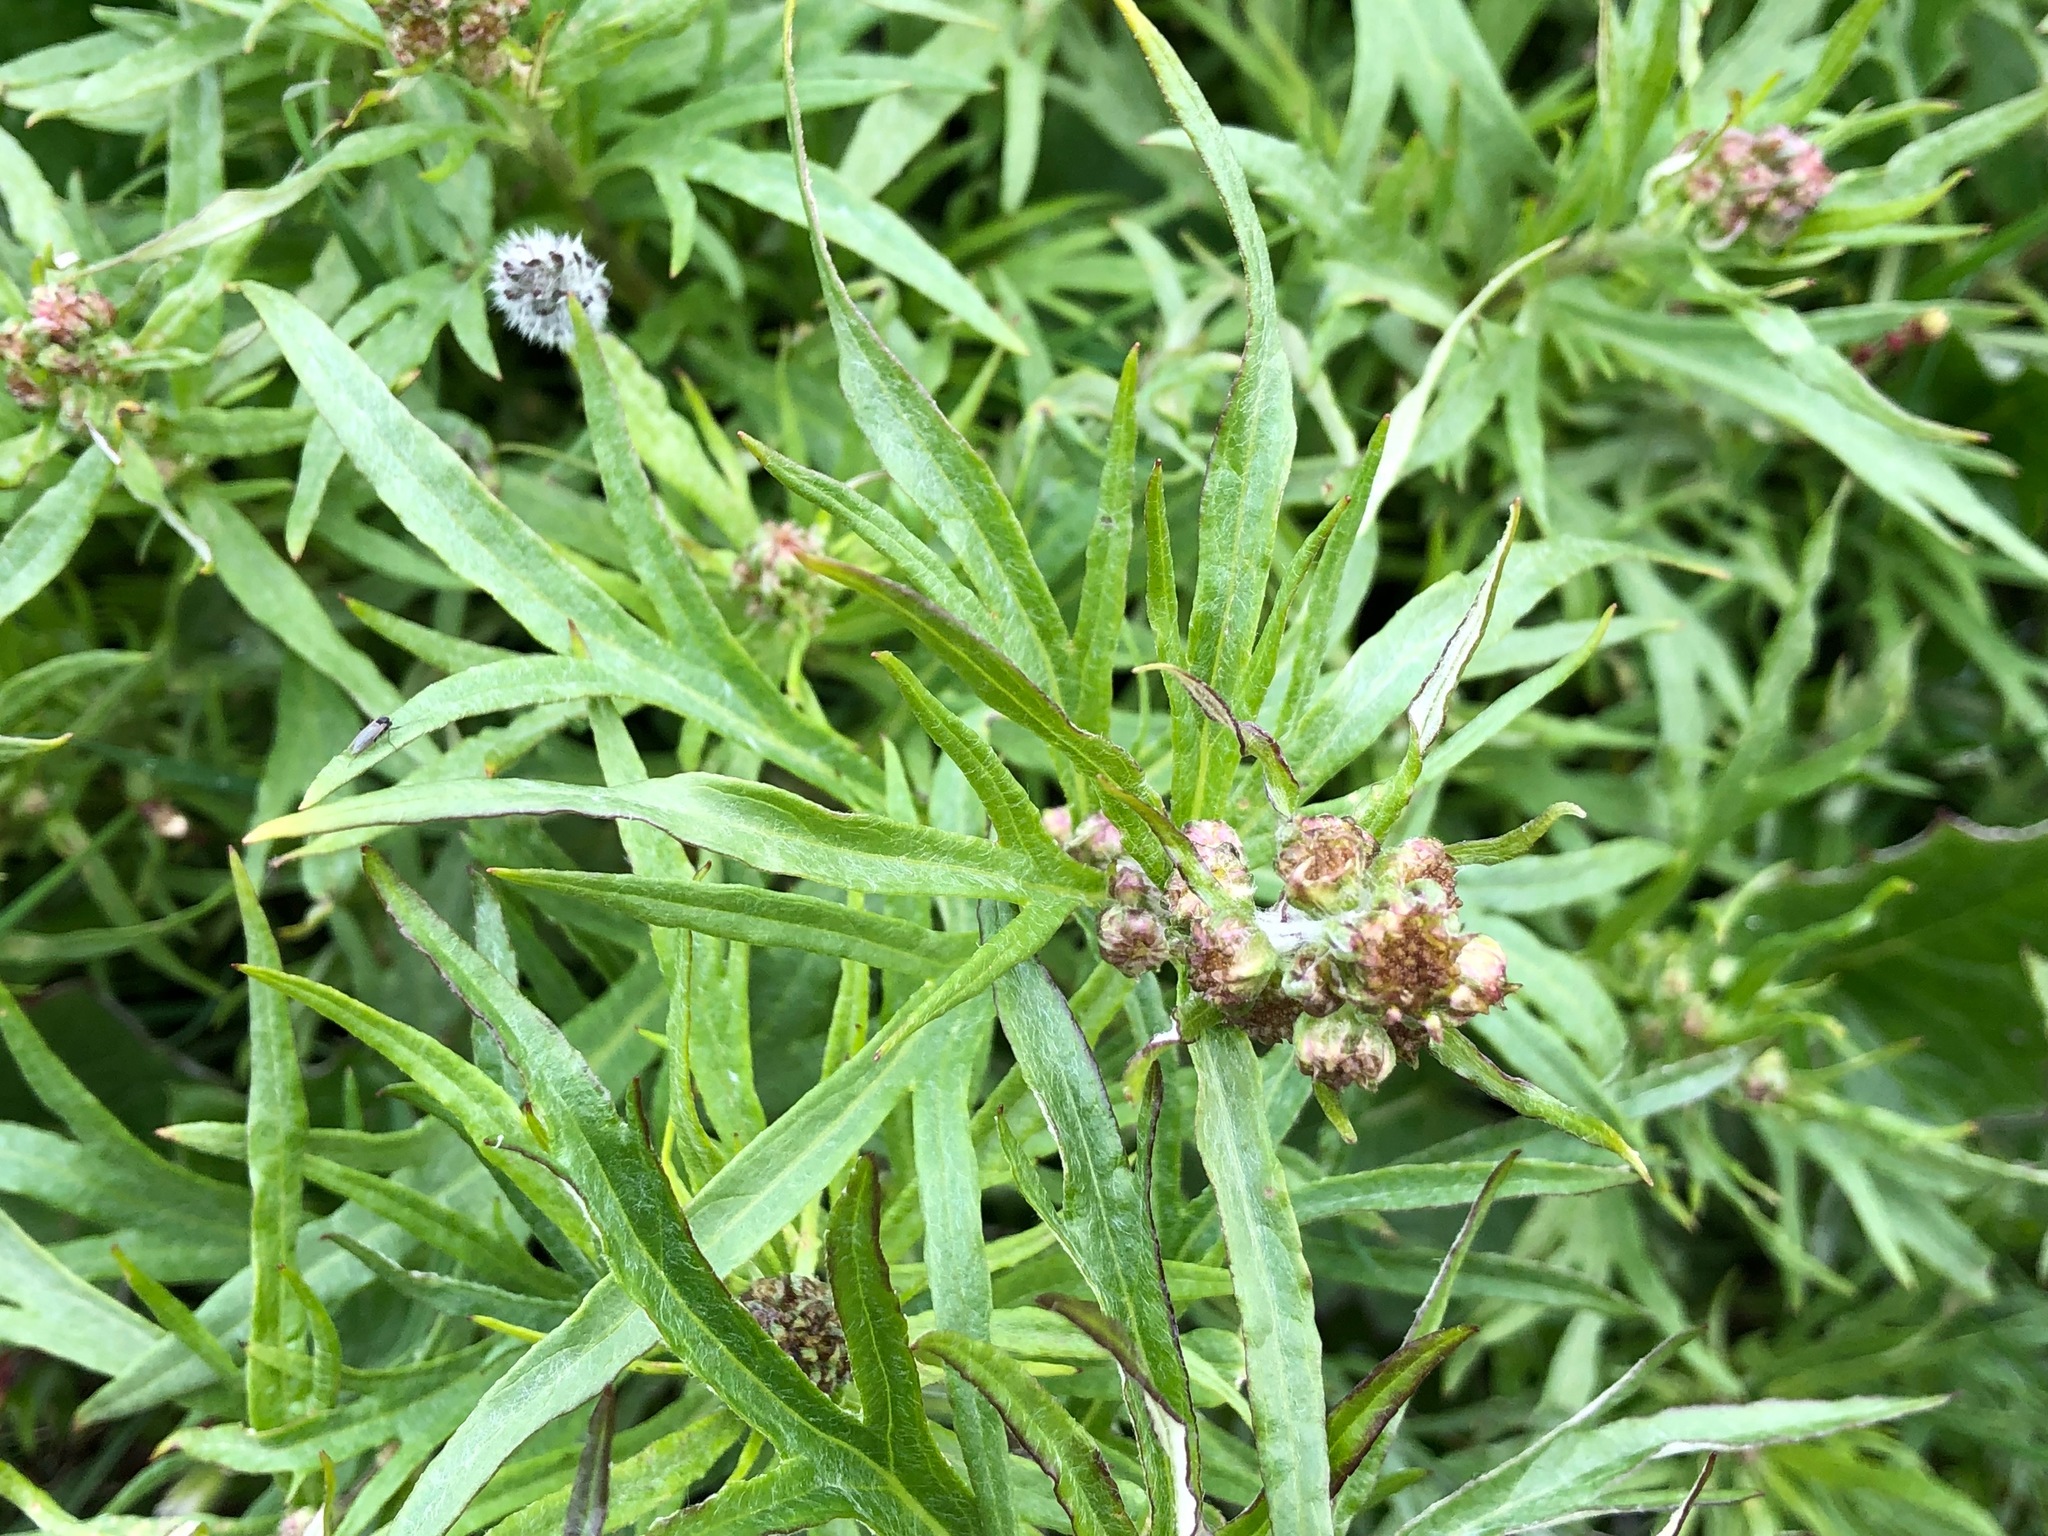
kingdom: Plantae
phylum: Tracheophyta
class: Magnoliopsida
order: Asterales
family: Asteraceae
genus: Artemisia
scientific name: Artemisia tilesii
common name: Aleutian mugwort
